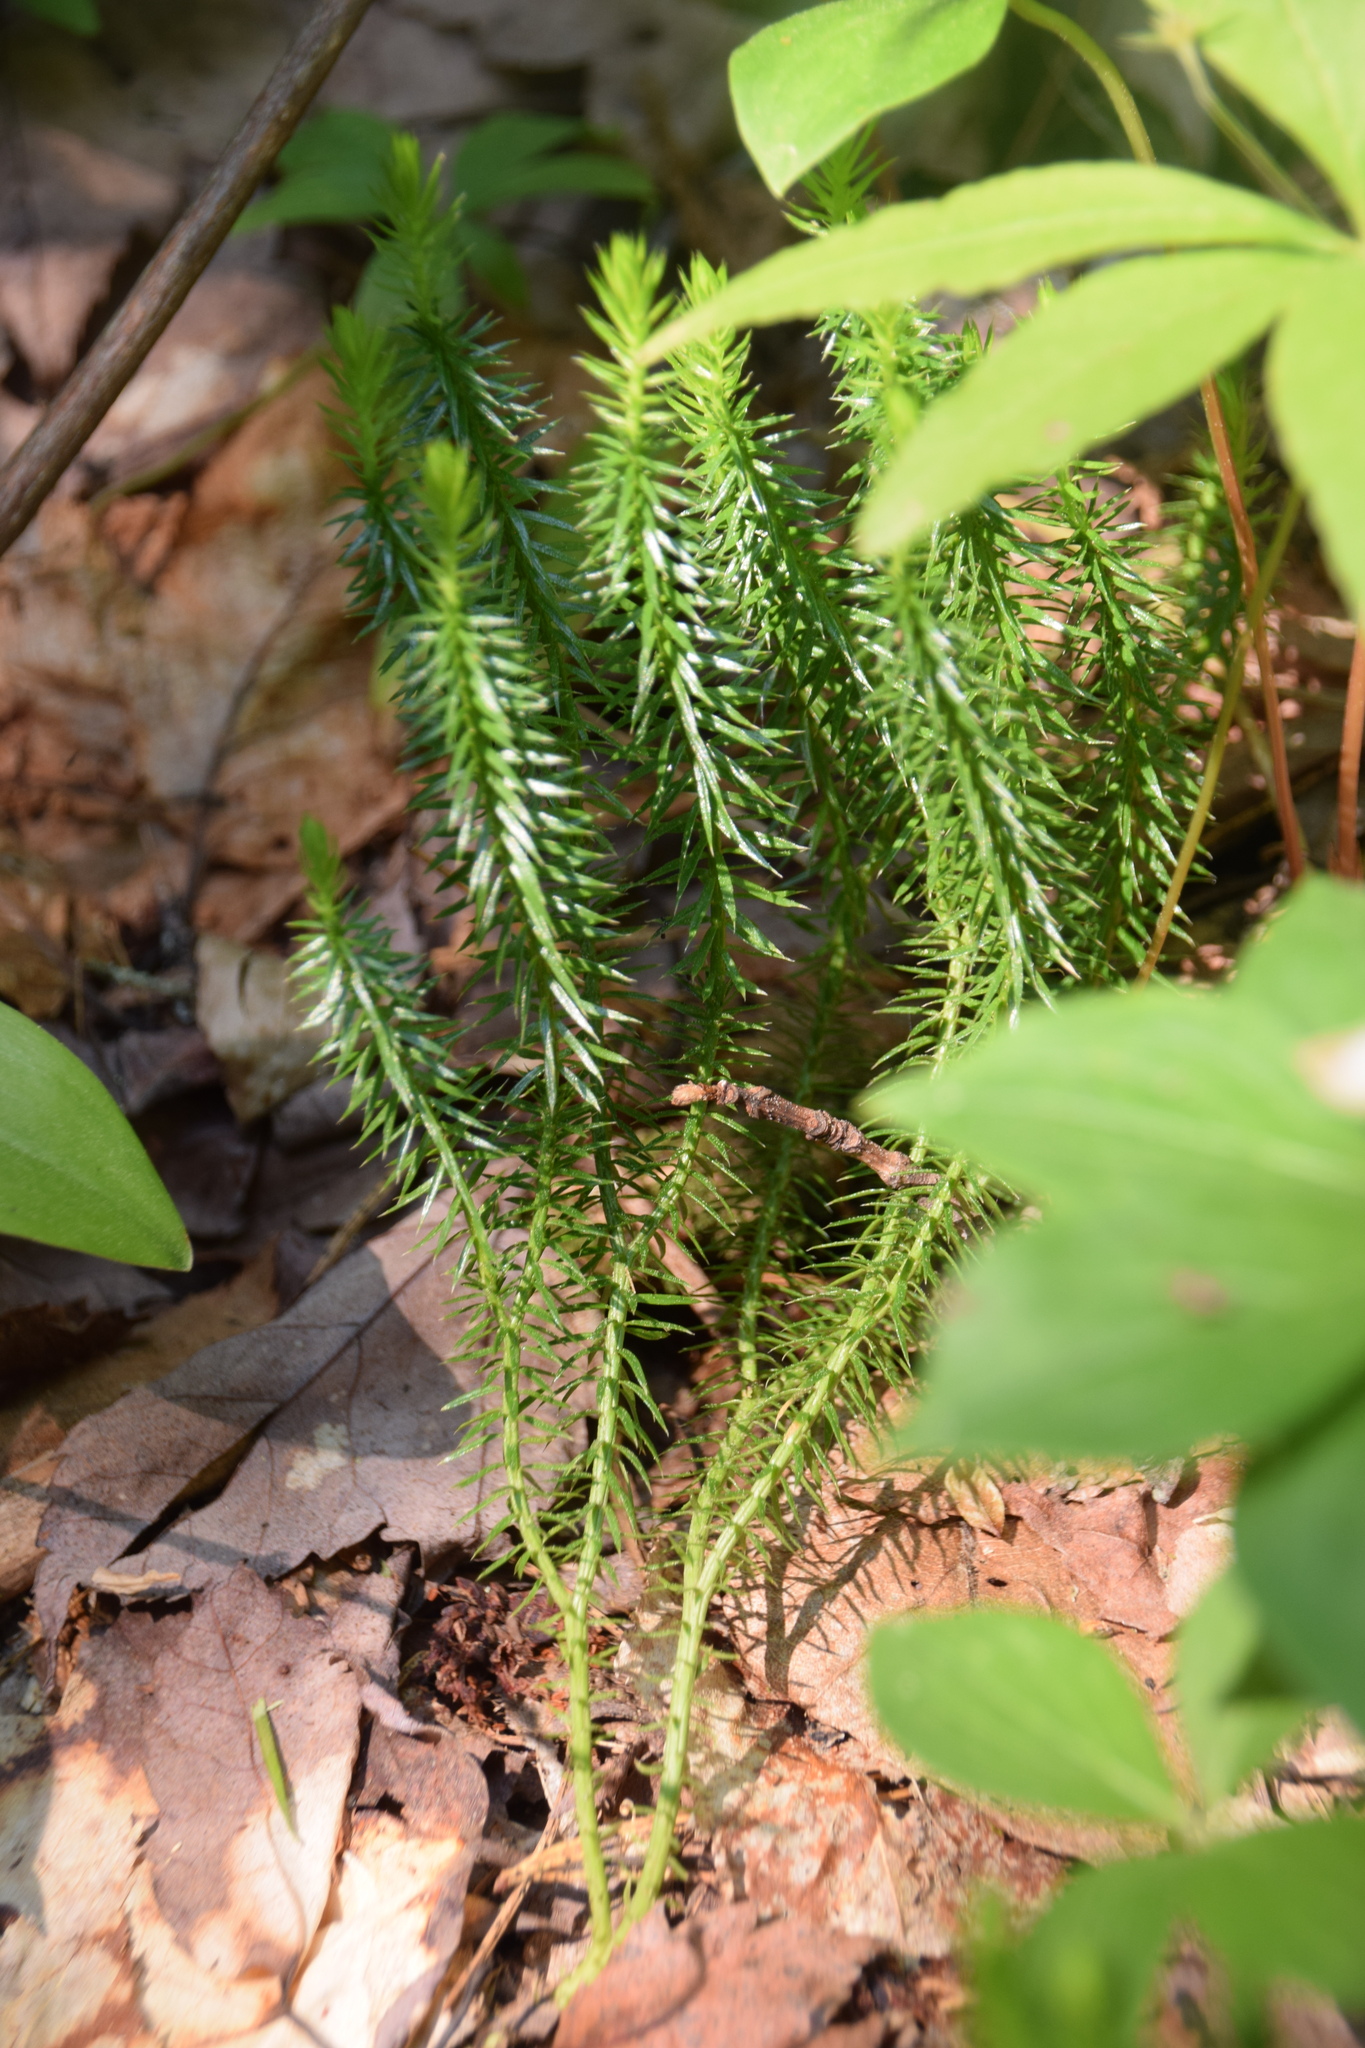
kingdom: Plantae
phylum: Tracheophyta
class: Lycopodiopsida
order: Lycopodiales
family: Lycopodiaceae
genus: Spinulum
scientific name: Spinulum annotinum
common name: Interrupted club-moss
